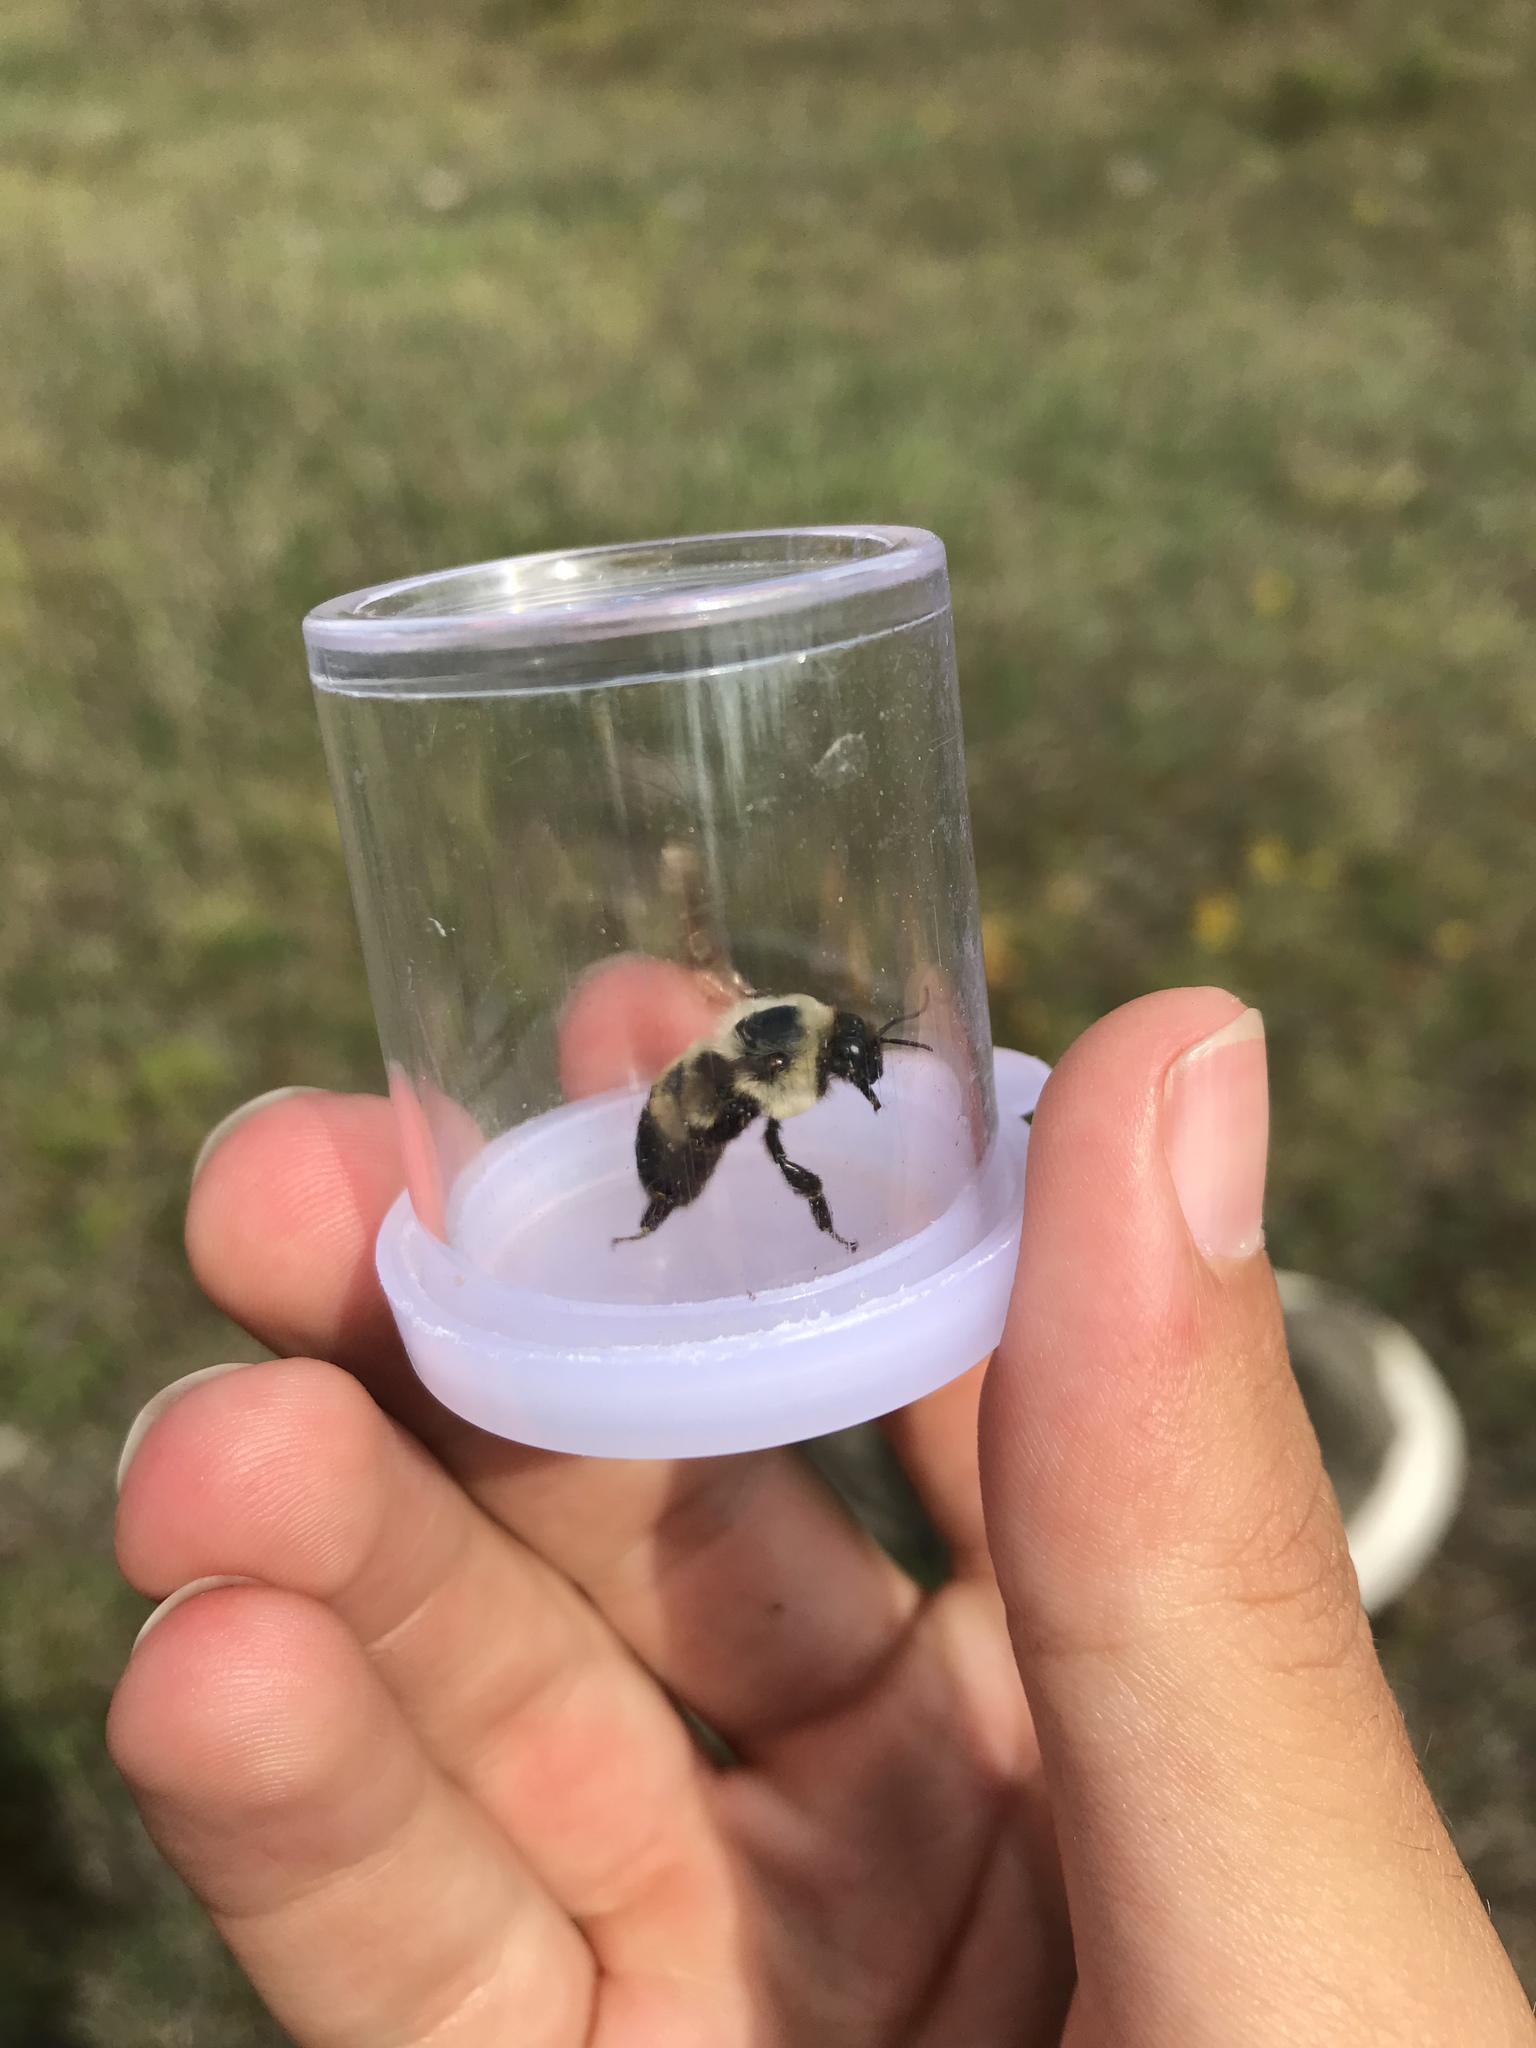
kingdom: Animalia
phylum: Arthropoda
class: Insecta
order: Hymenoptera
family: Apidae
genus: Bombus
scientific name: Bombus griseocollis
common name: Brown-belted bumble bee
